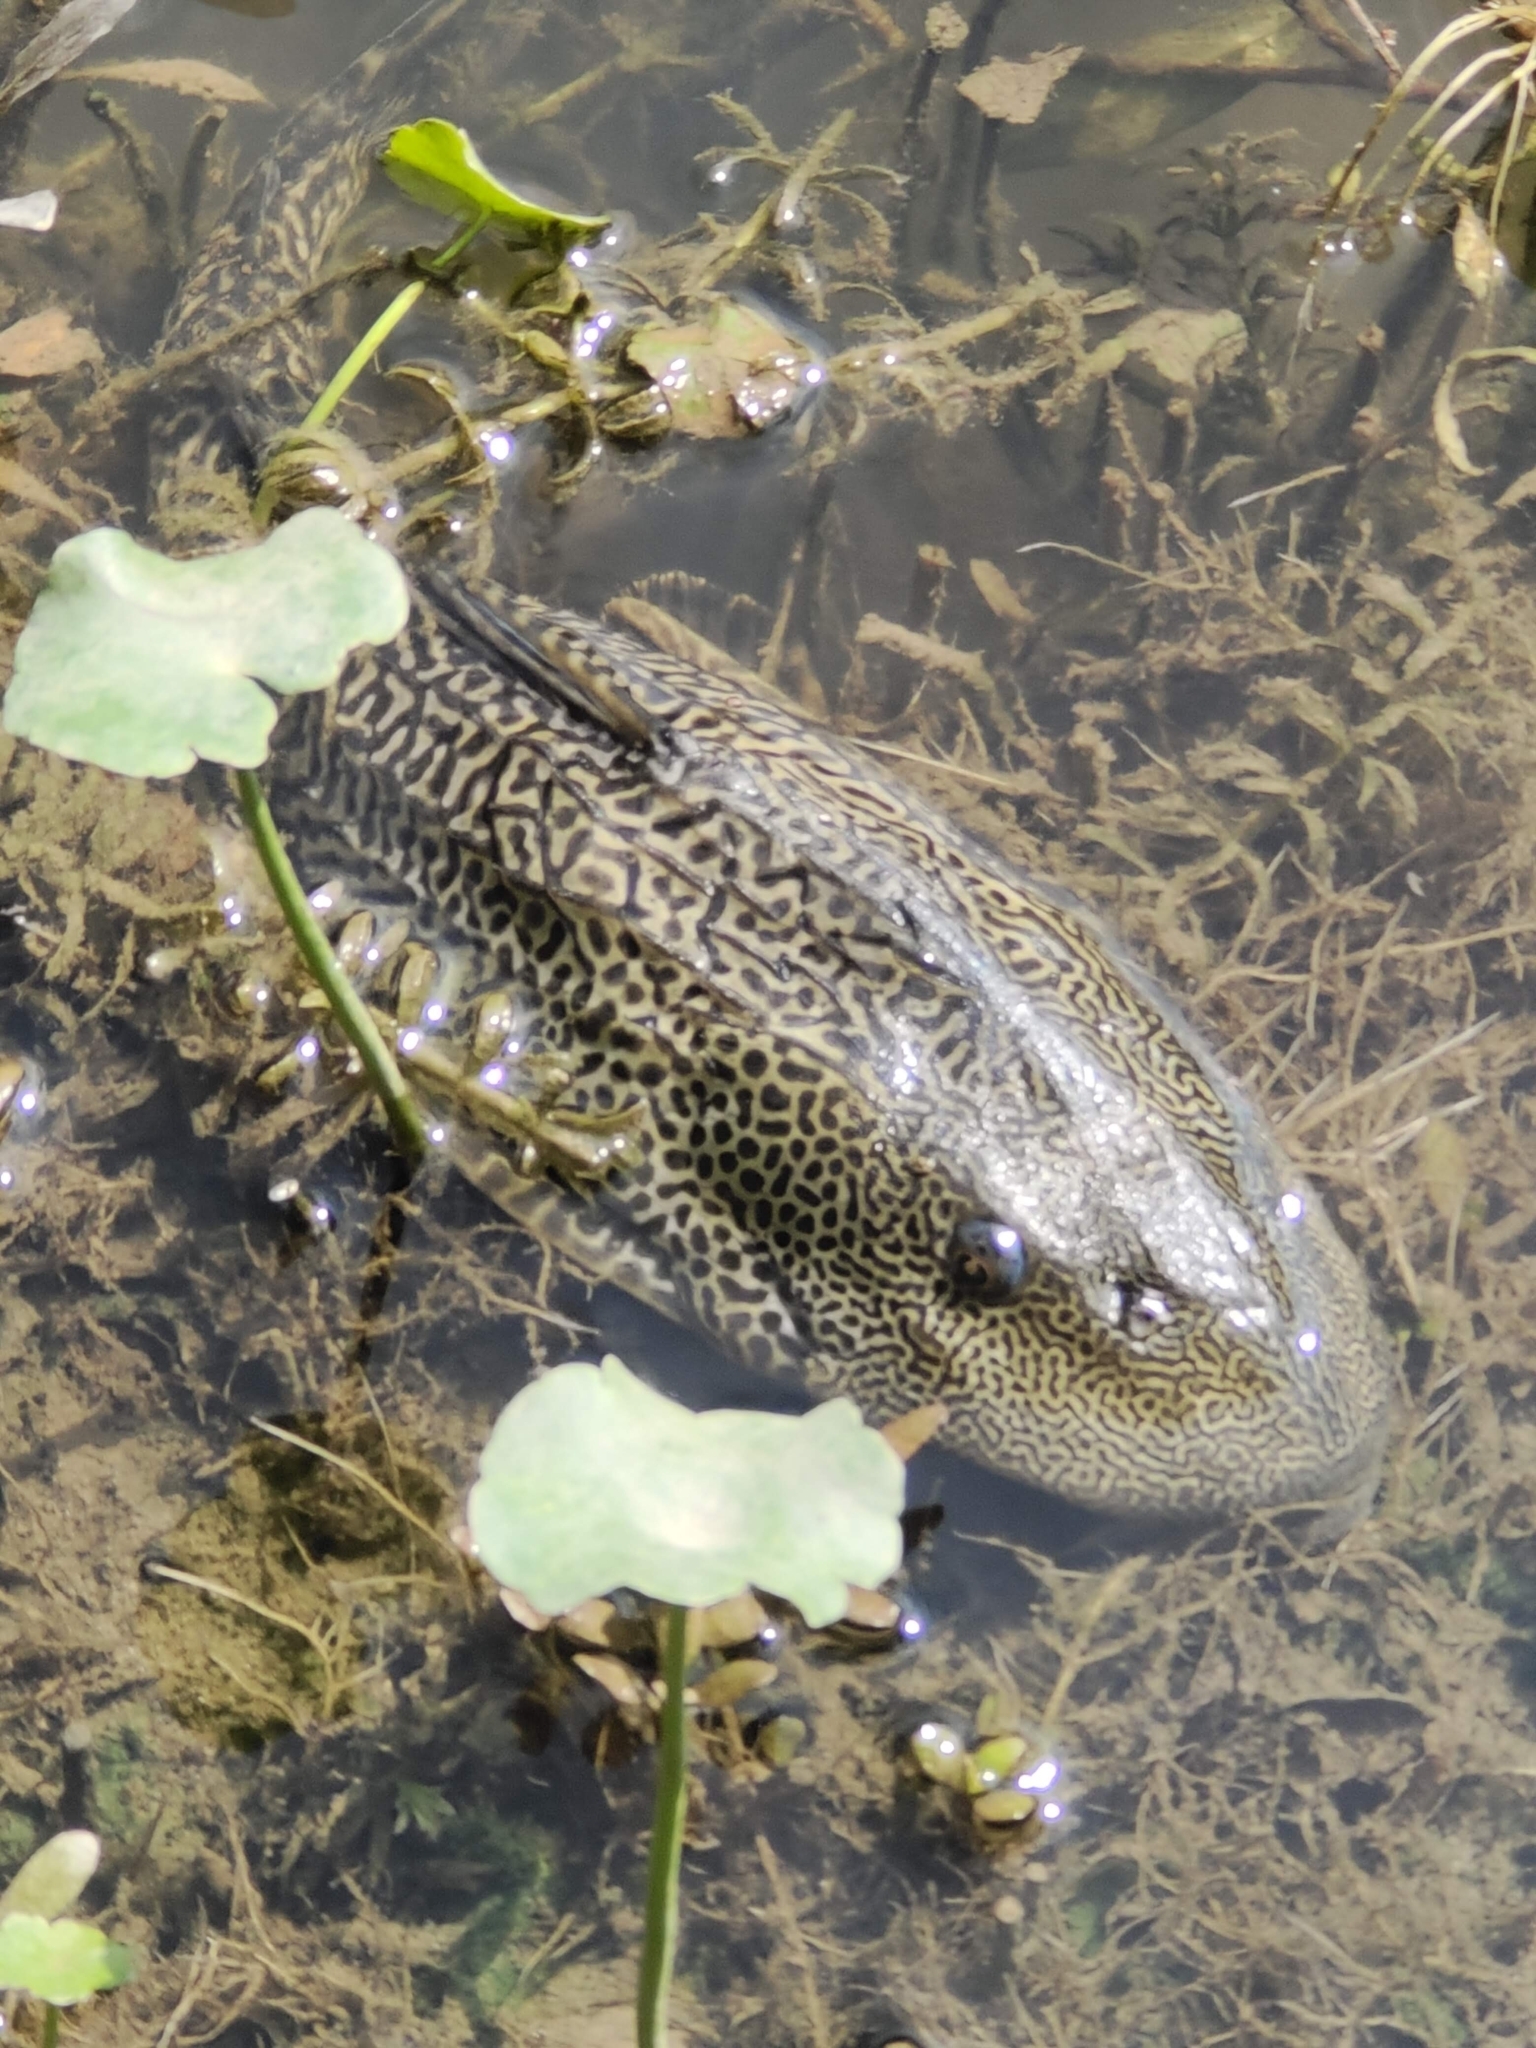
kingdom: Animalia
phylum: Chordata
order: Siluriformes
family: Loricariidae
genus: Pterygoplichthys
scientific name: Pterygoplichthys
